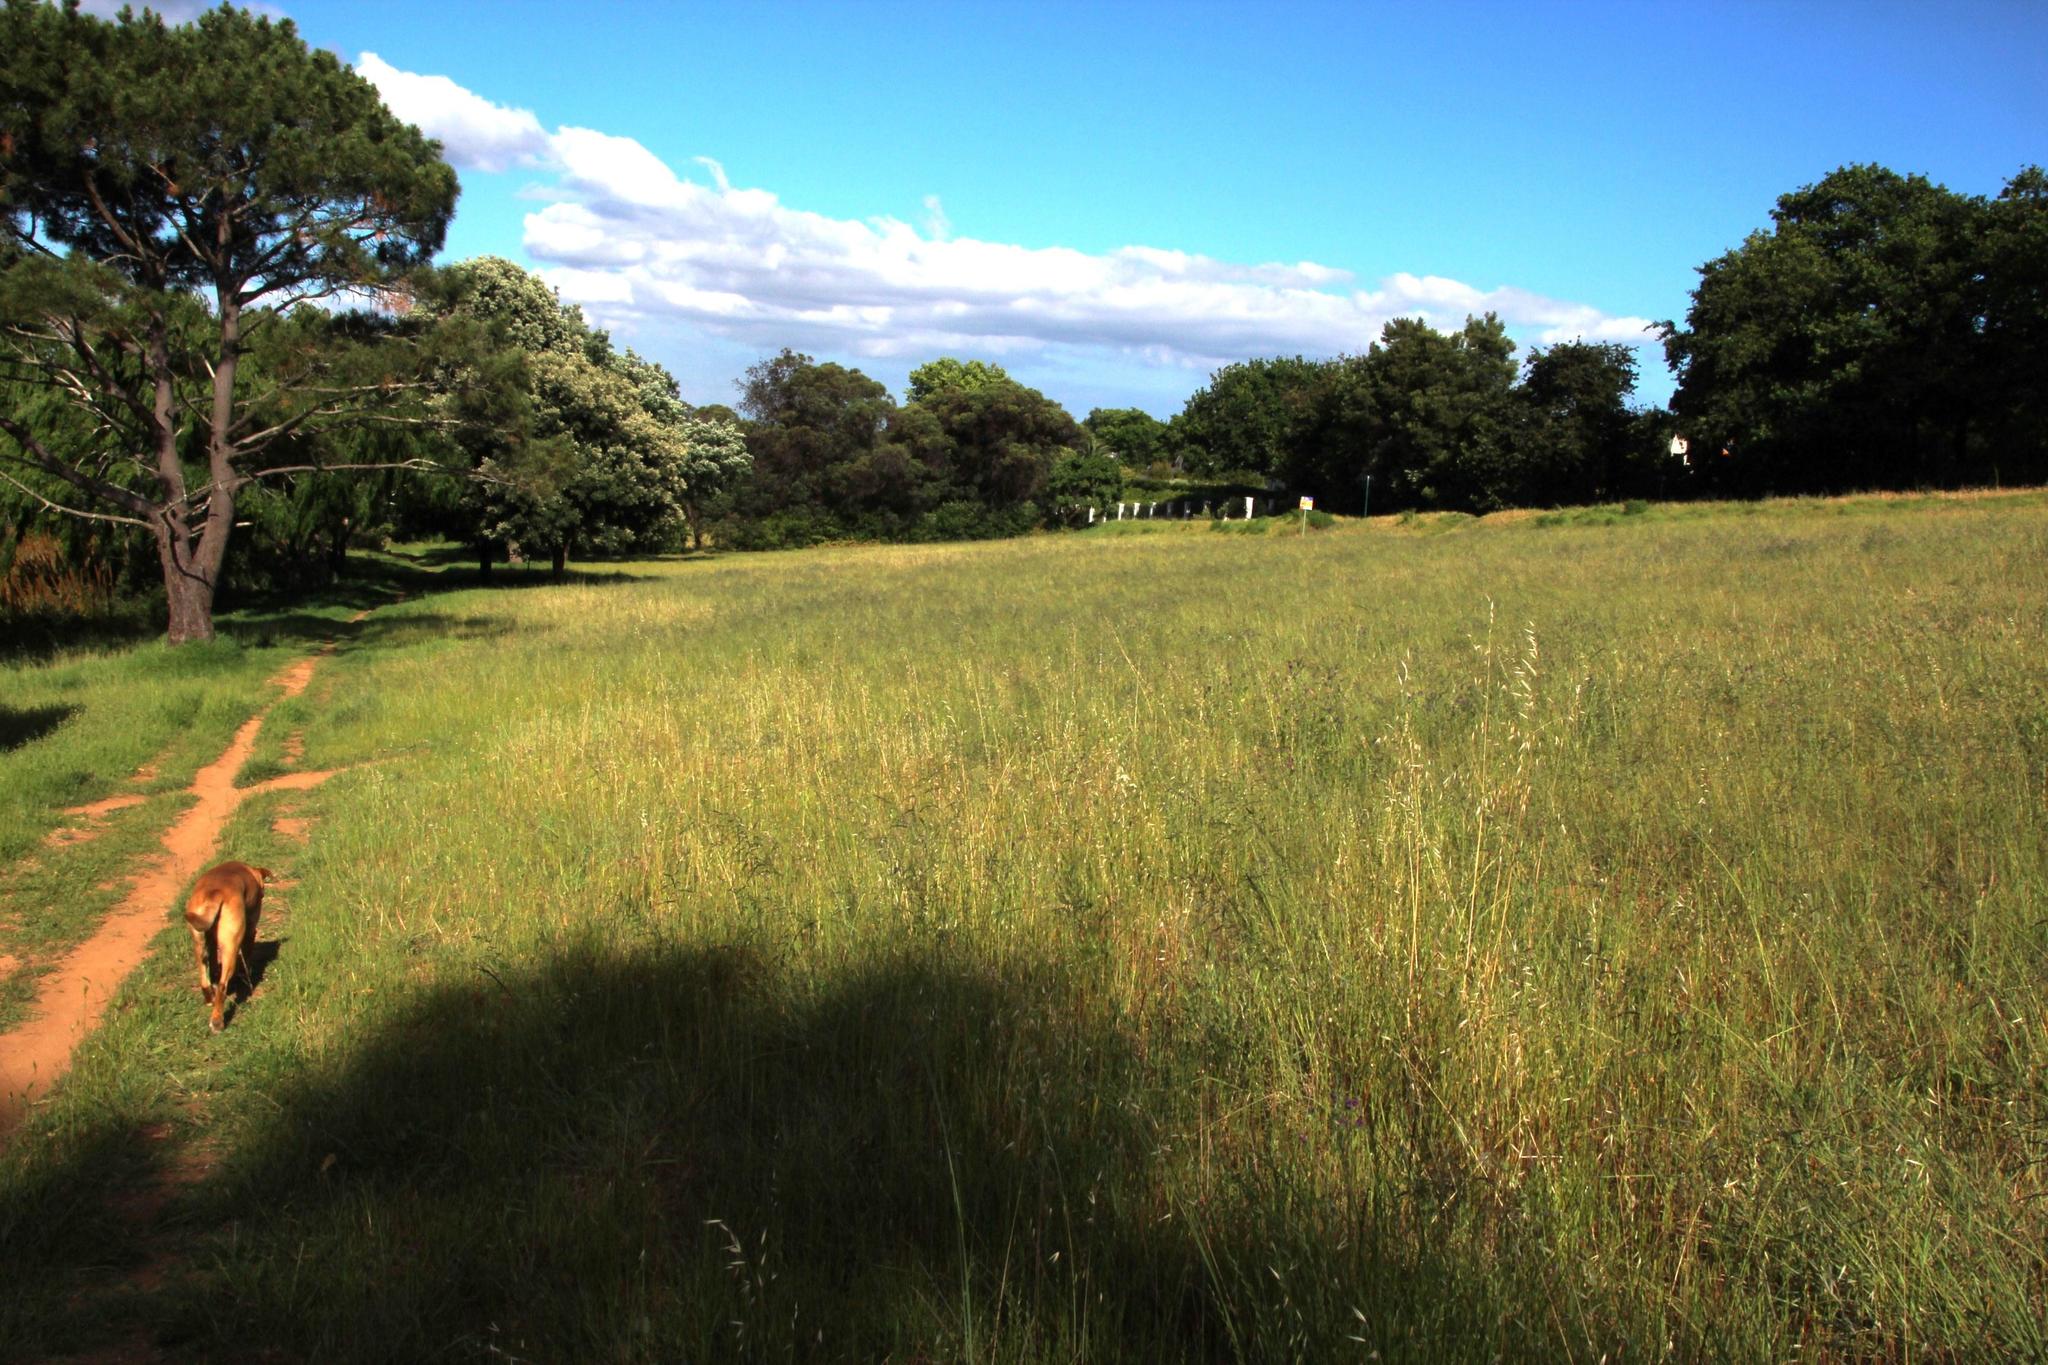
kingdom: Plantae
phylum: Tracheophyta
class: Liliopsida
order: Poales
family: Poaceae
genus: Eragrostis
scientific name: Eragrostis curvula
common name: African love-grass
